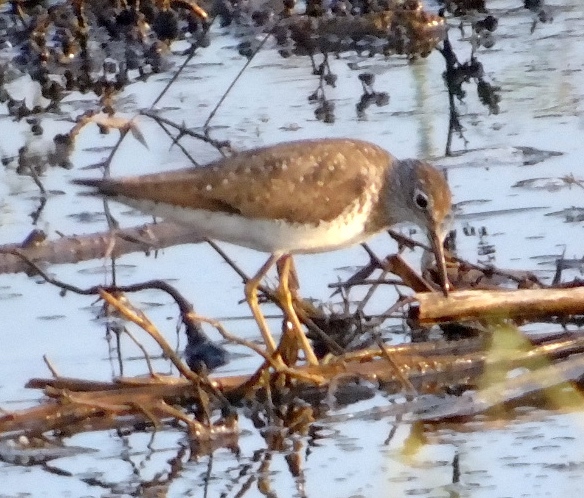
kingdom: Animalia
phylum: Chordata
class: Aves
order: Charadriiformes
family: Scolopacidae
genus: Tringa
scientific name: Tringa solitaria
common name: Solitary sandpiper
